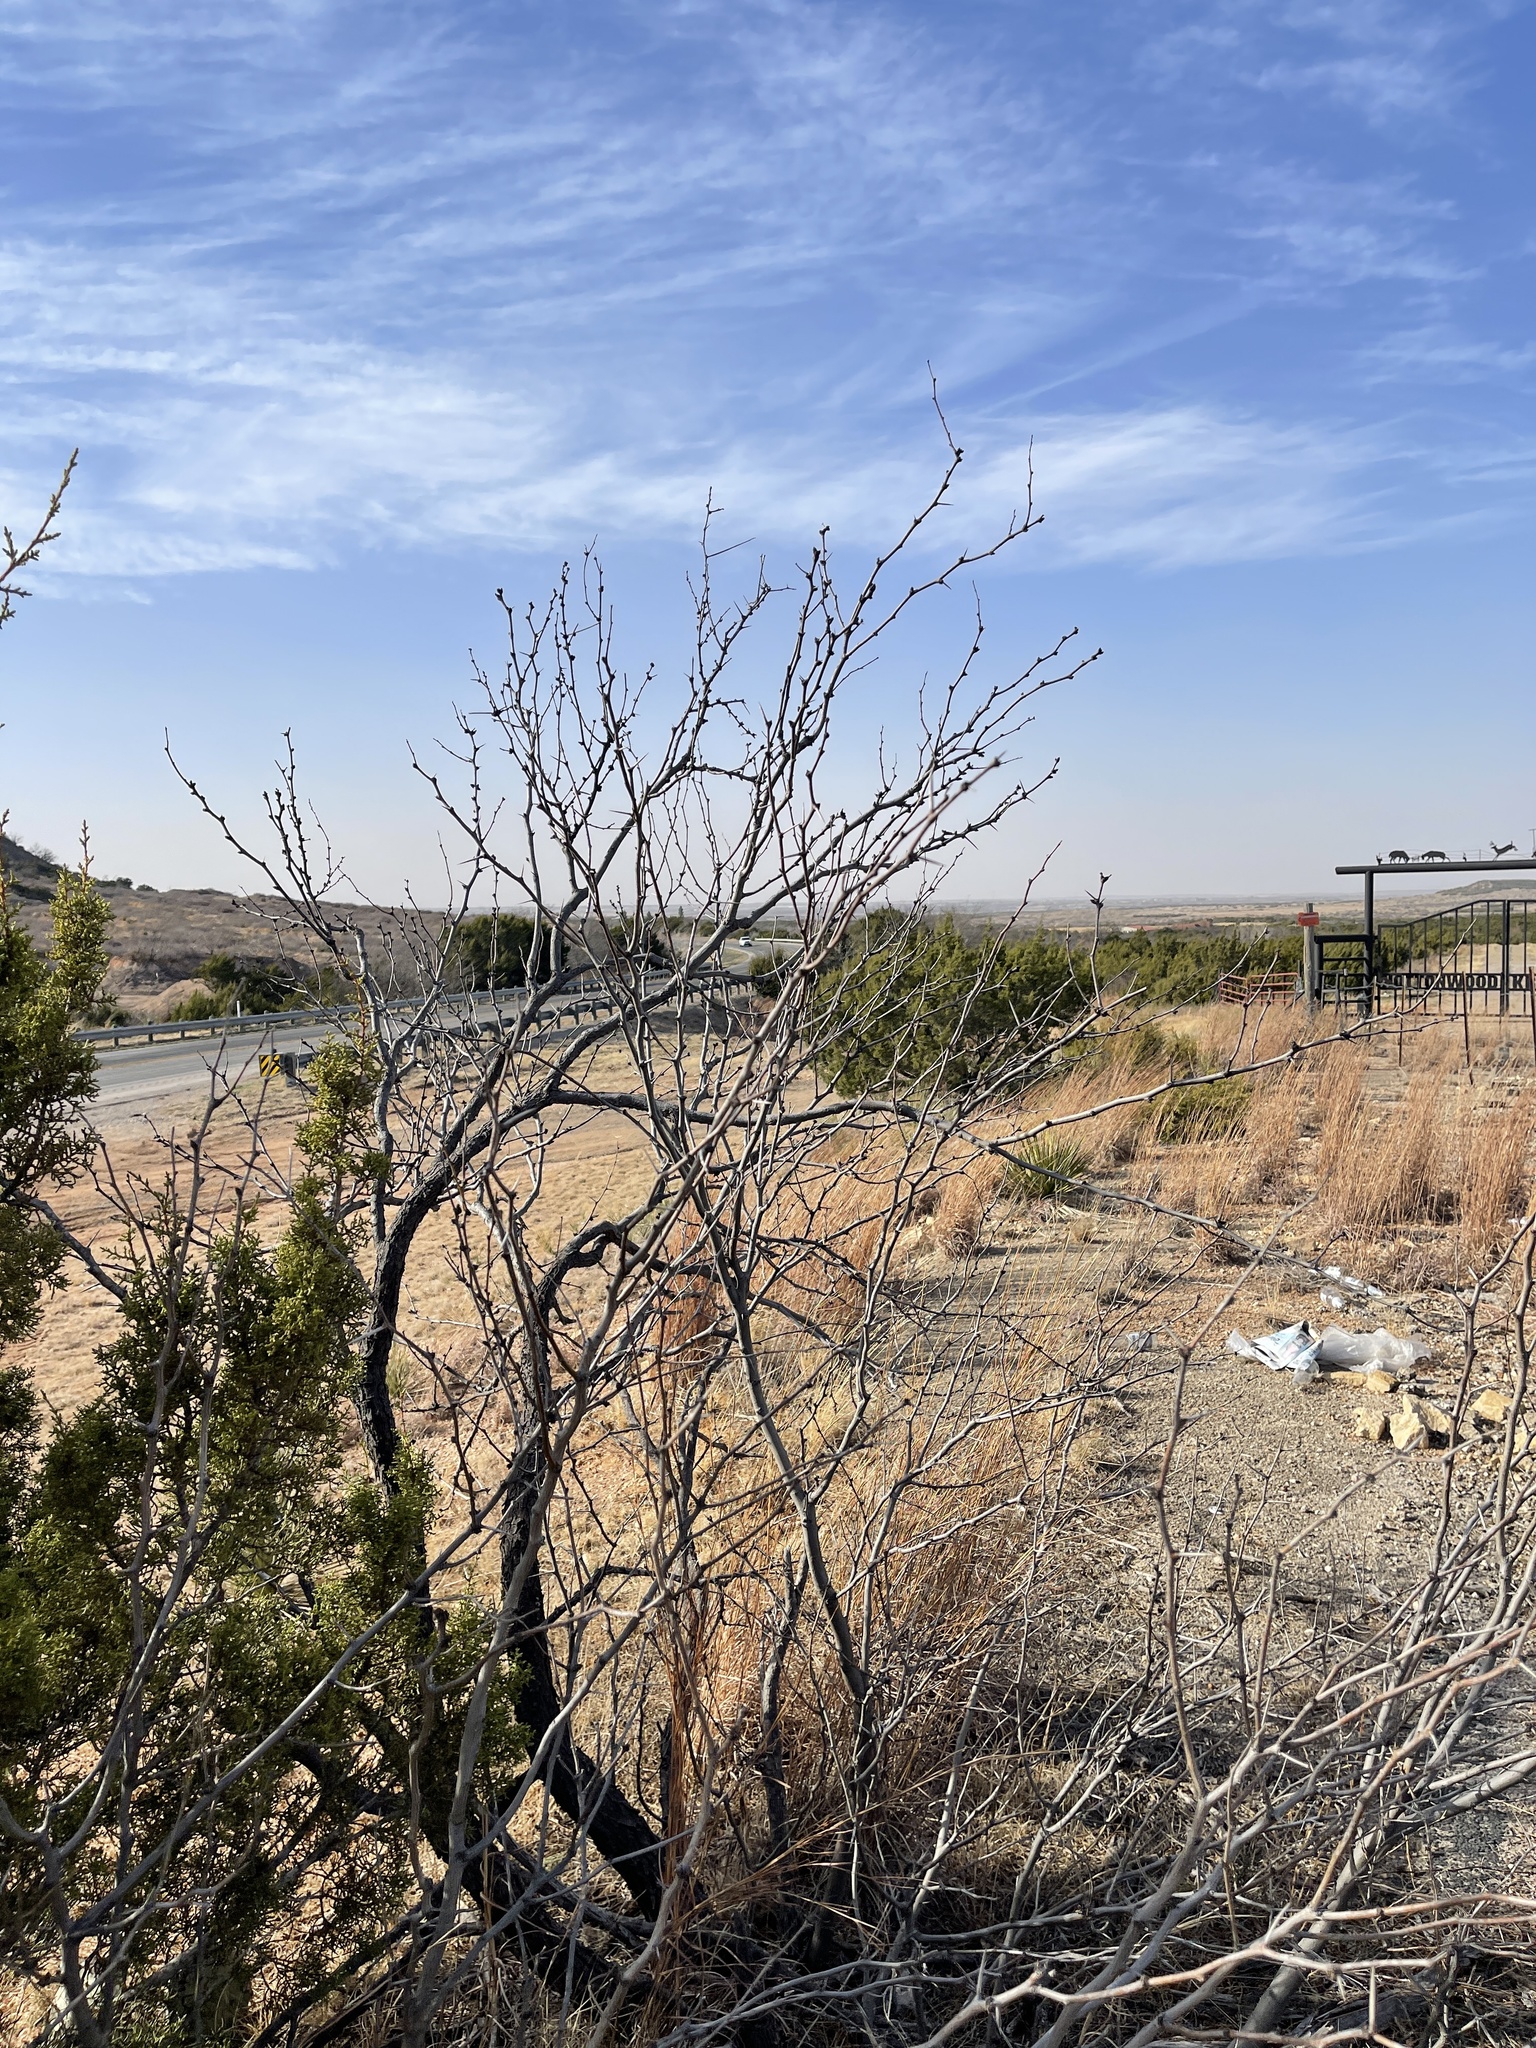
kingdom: Plantae
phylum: Tracheophyta
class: Magnoliopsida
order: Fabales
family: Fabaceae
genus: Prosopis
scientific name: Prosopis glandulosa
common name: Honey mesquite
